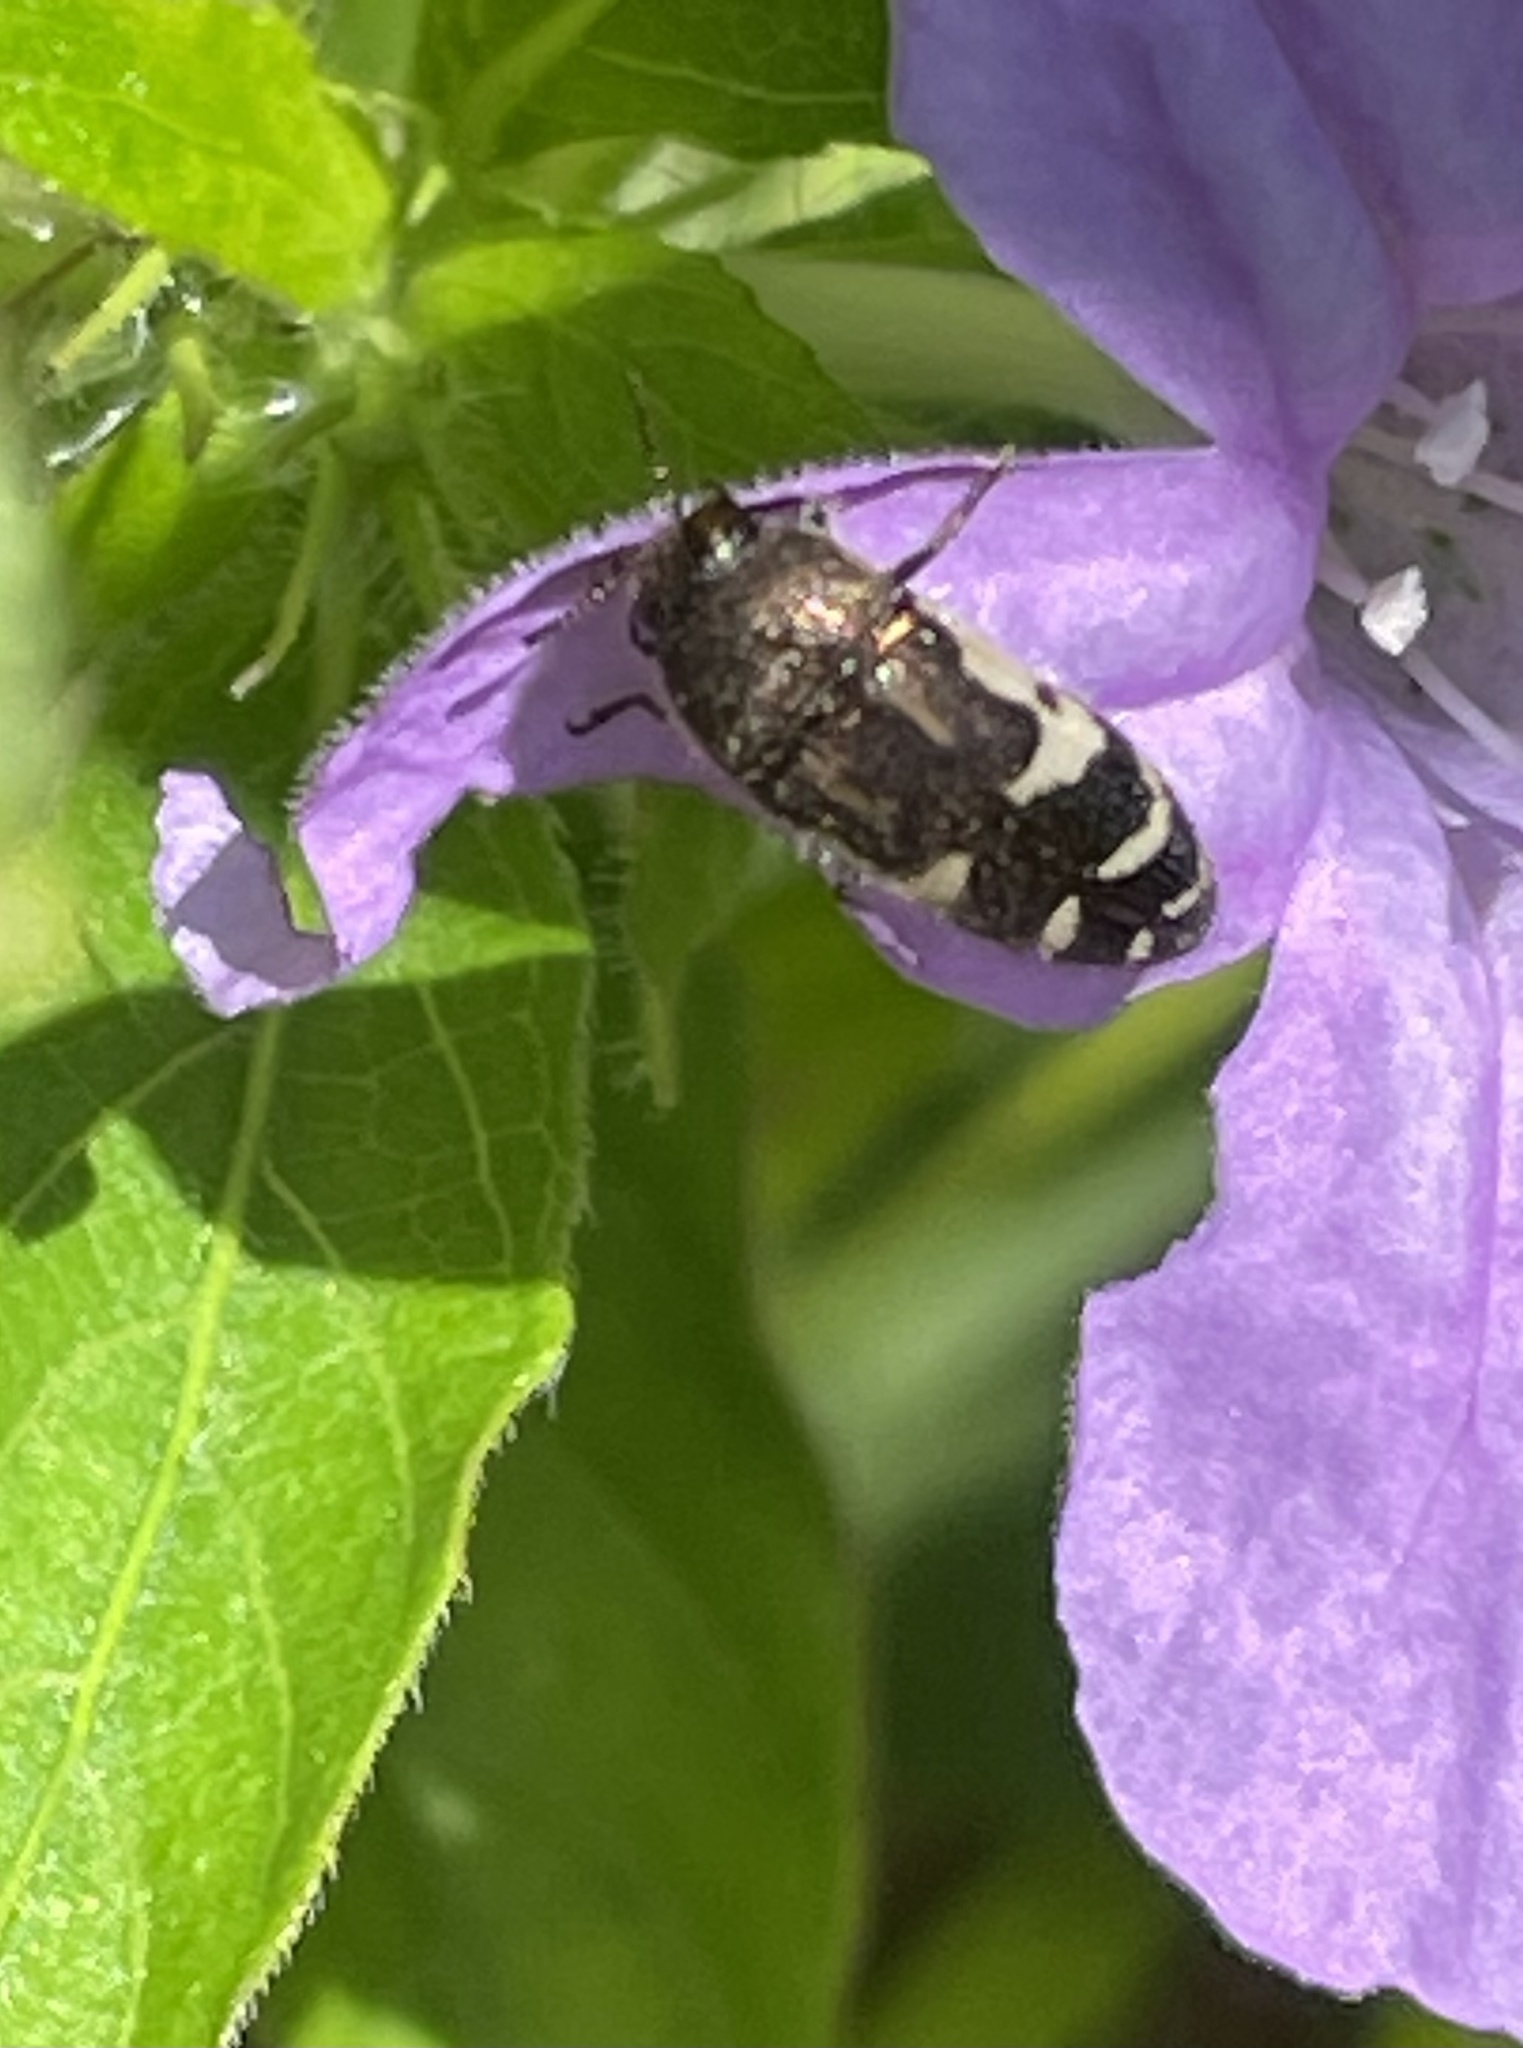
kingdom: Animalia
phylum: Arthropoda
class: Insecta
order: Coleoptera
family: Buprestidae
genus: Acmaeodera
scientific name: Acmaeodera pulchella
